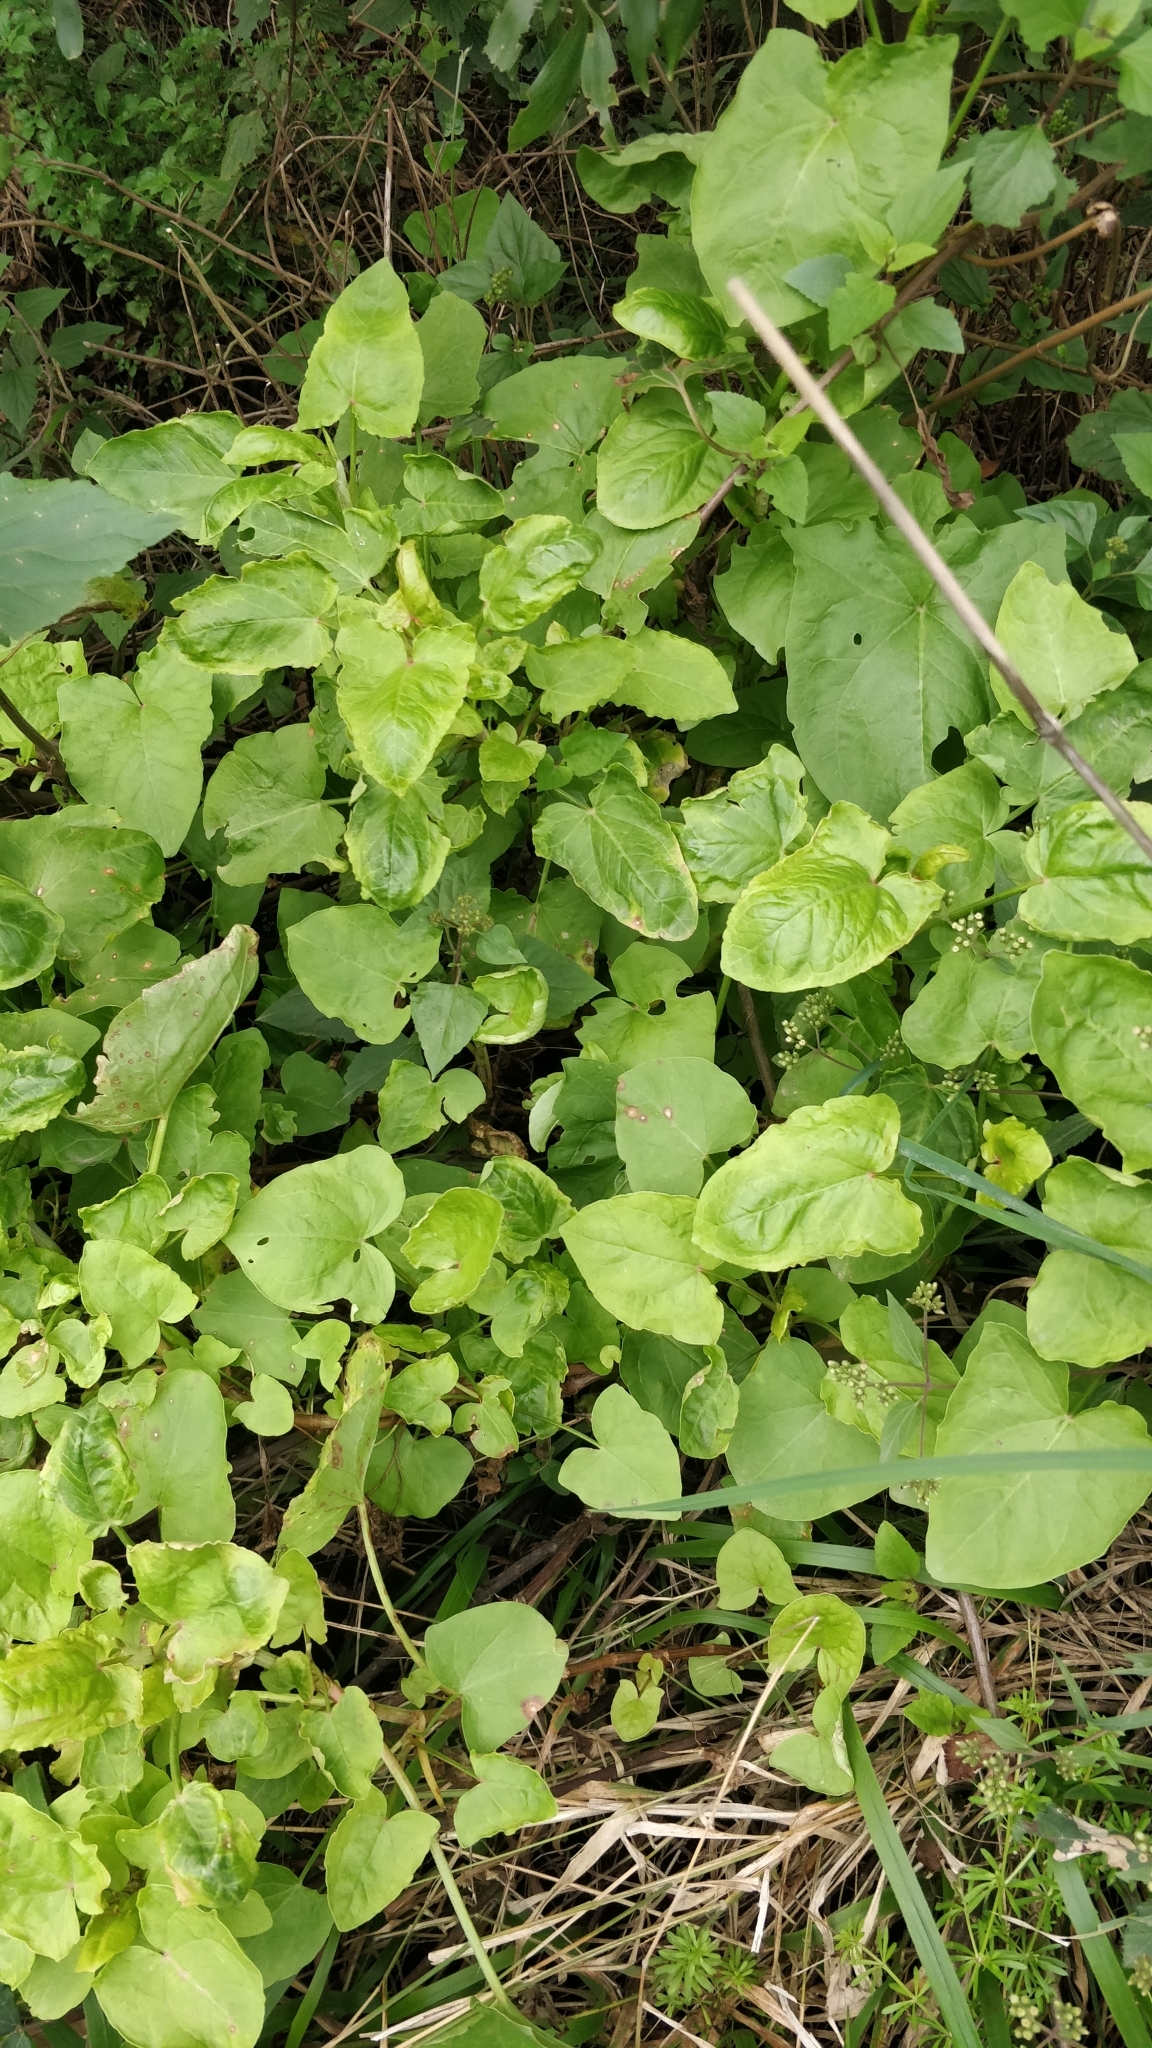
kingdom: Plantae
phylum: Tracheophyta
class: Magnoliopsida
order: Caryophyllales
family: Polygonaceae
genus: Rumex
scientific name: Rumex maderensis
